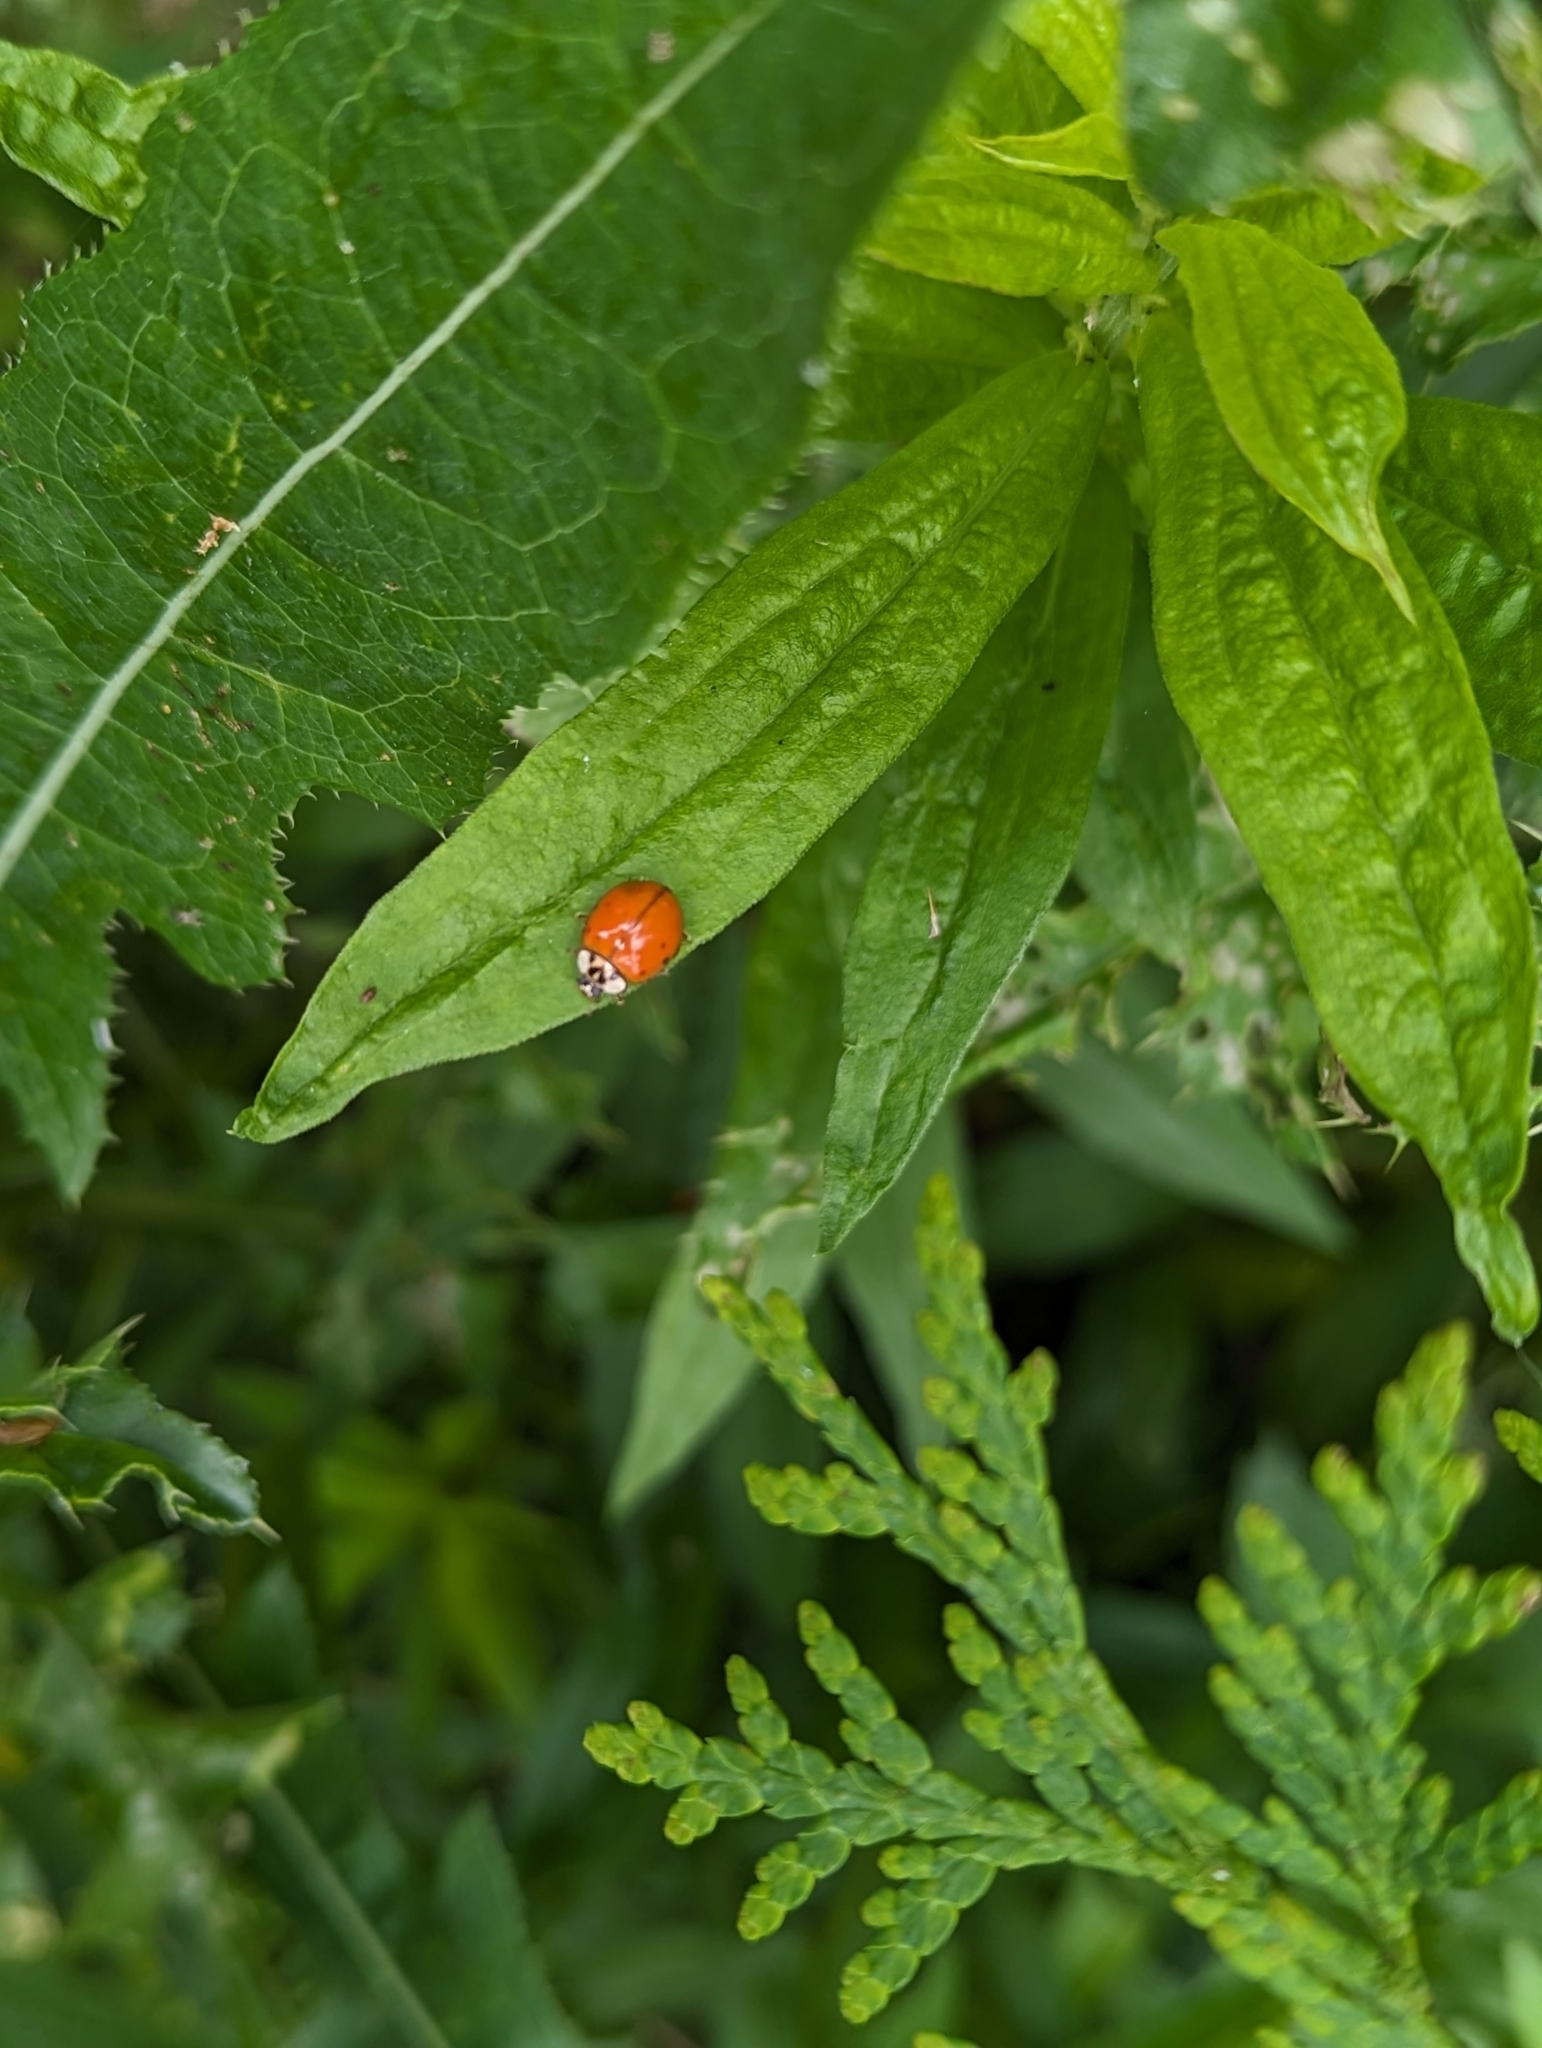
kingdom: Animalia
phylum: Arthropoda
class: Insecta
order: Coleoptera
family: Coccinellidae
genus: Harmonia
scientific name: Harmonia axyridis
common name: Harlequin ladybird
